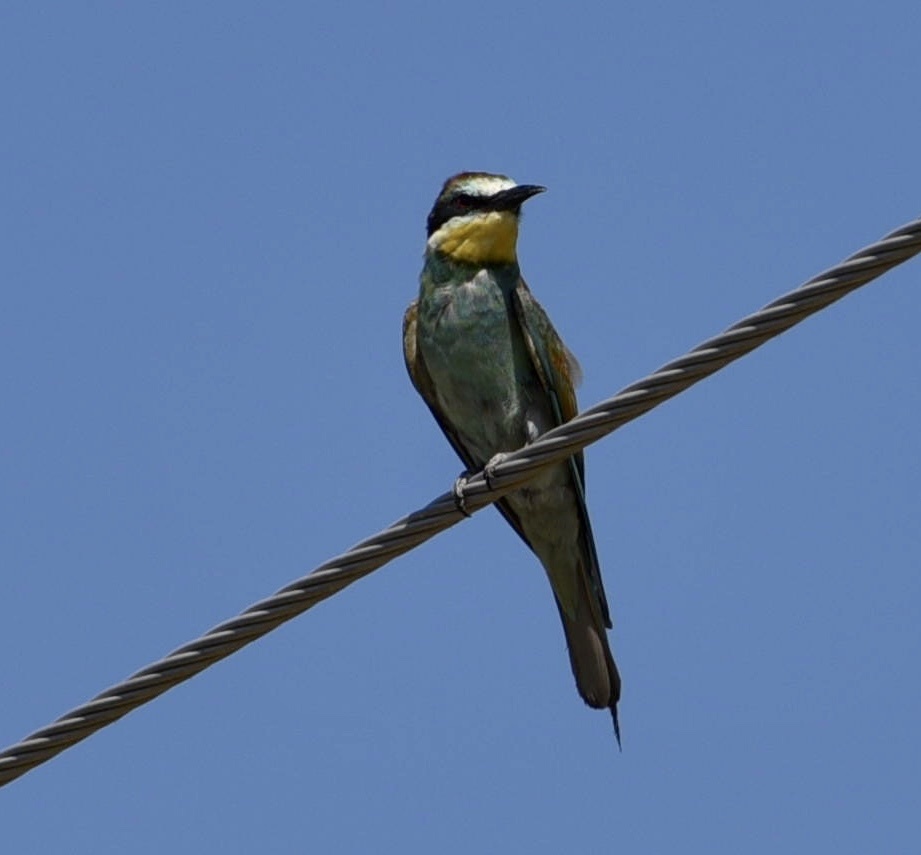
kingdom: Animalia
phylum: Chordata
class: Aves
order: Coraciiformes
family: Meropidae
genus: Merops
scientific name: Merops apiaster
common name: European bee-eater
